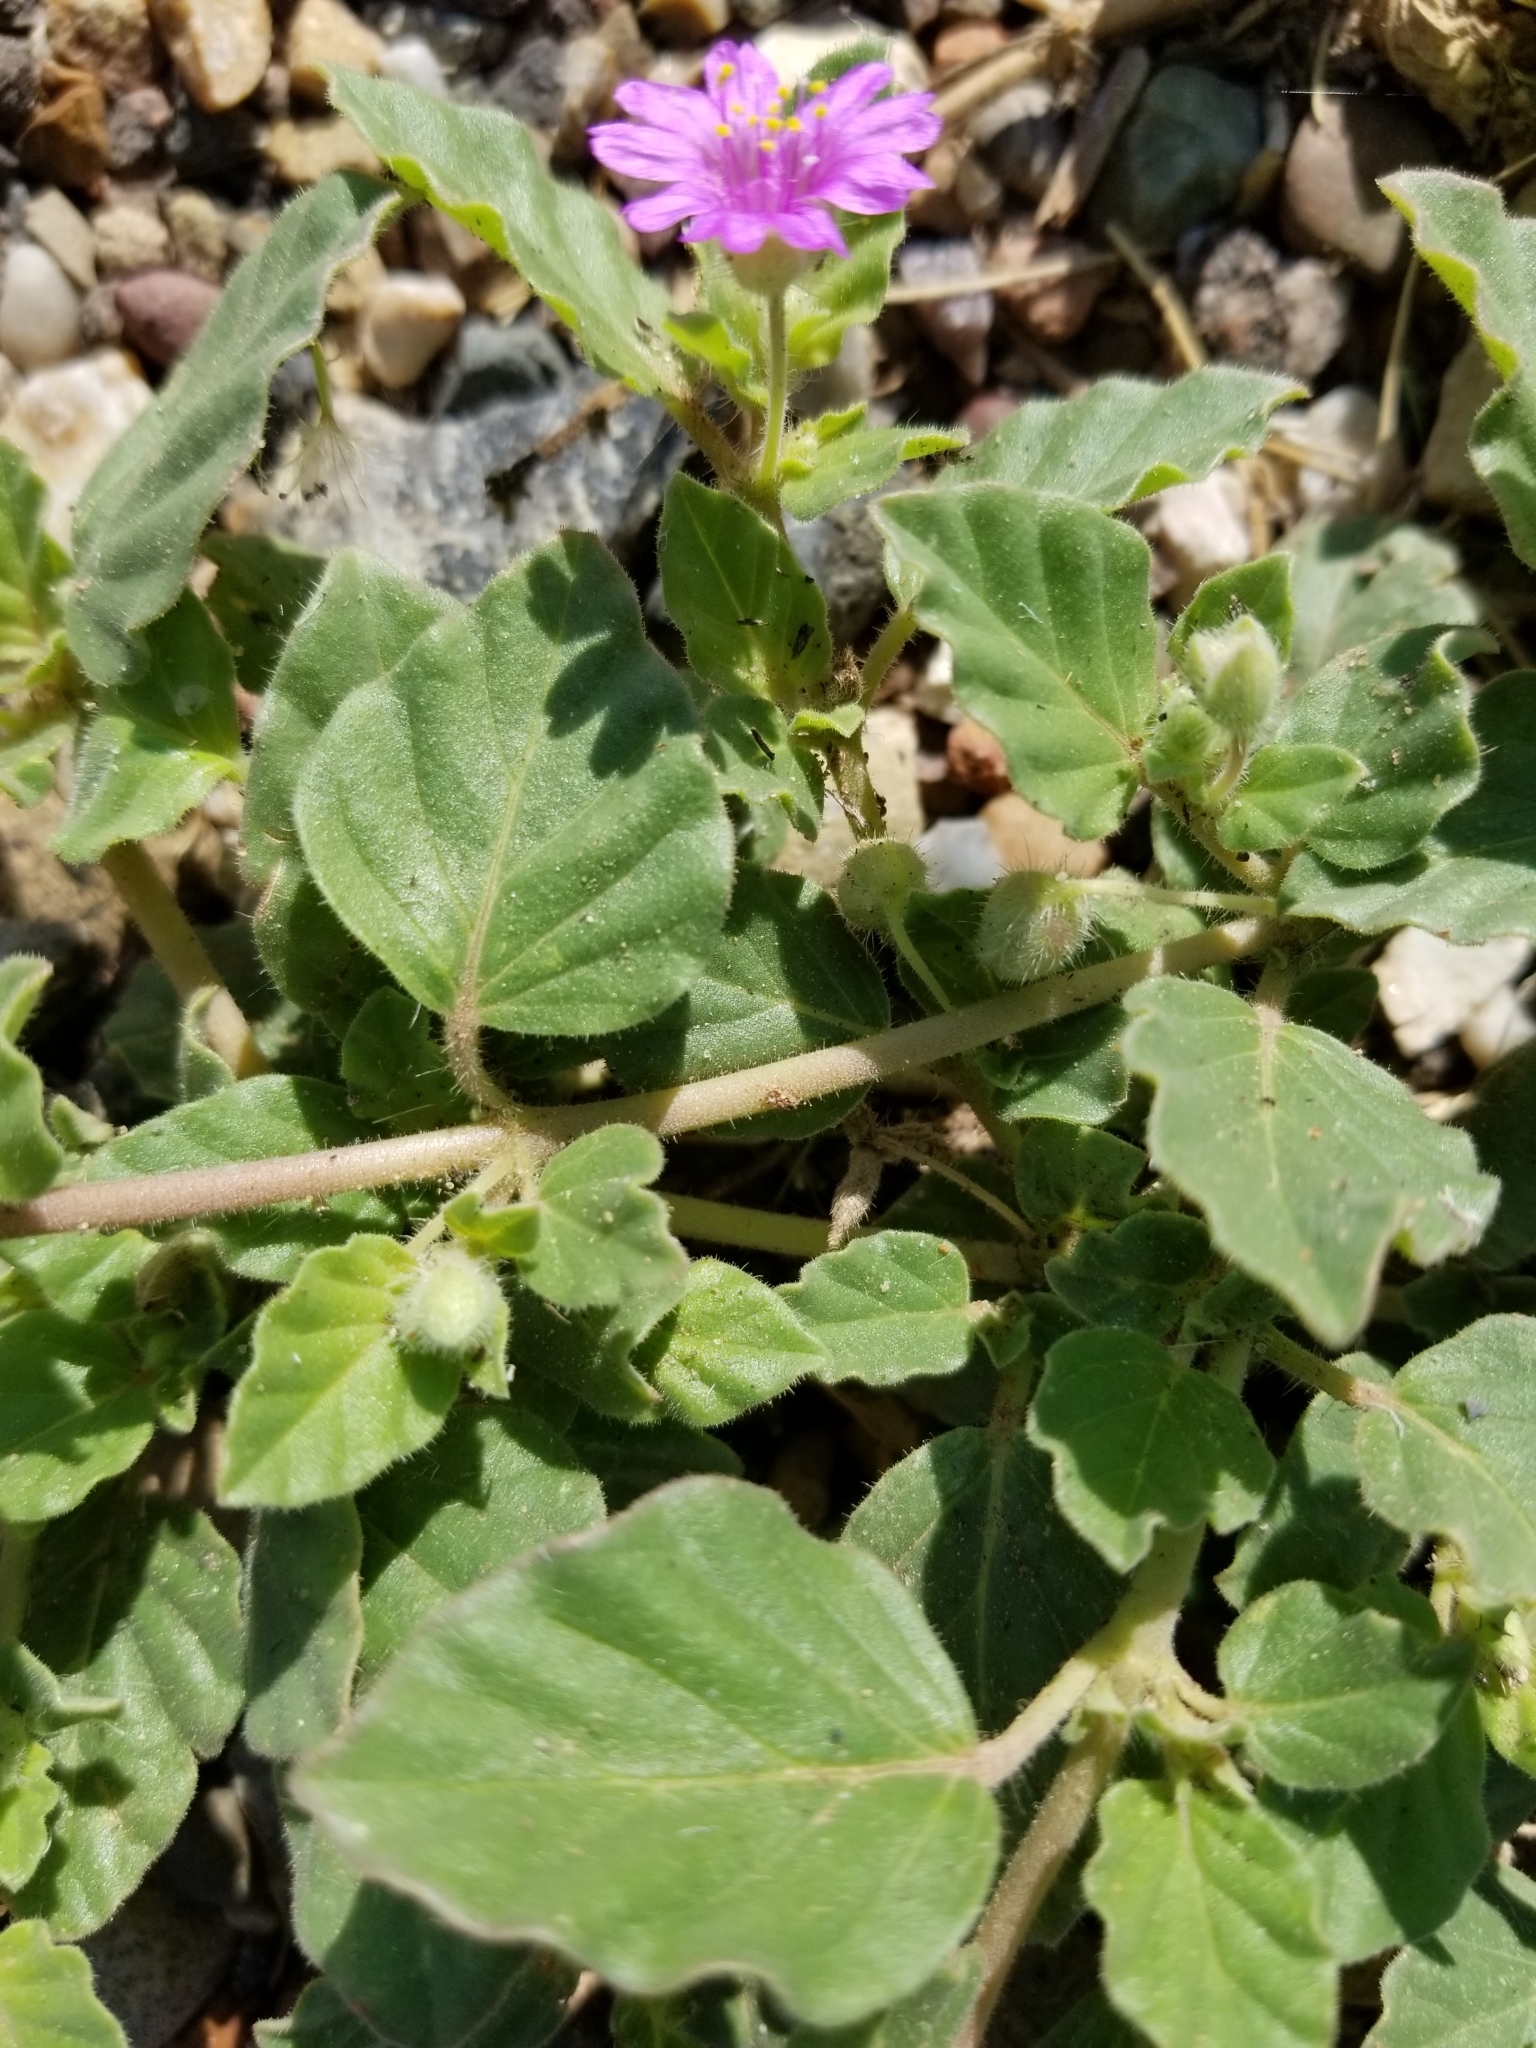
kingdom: Plantae
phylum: Tracheophyta
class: Magnoliopsida
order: Caryophyllales
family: Nyctaginaceae
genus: Allionia
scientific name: Allionia incarnata
